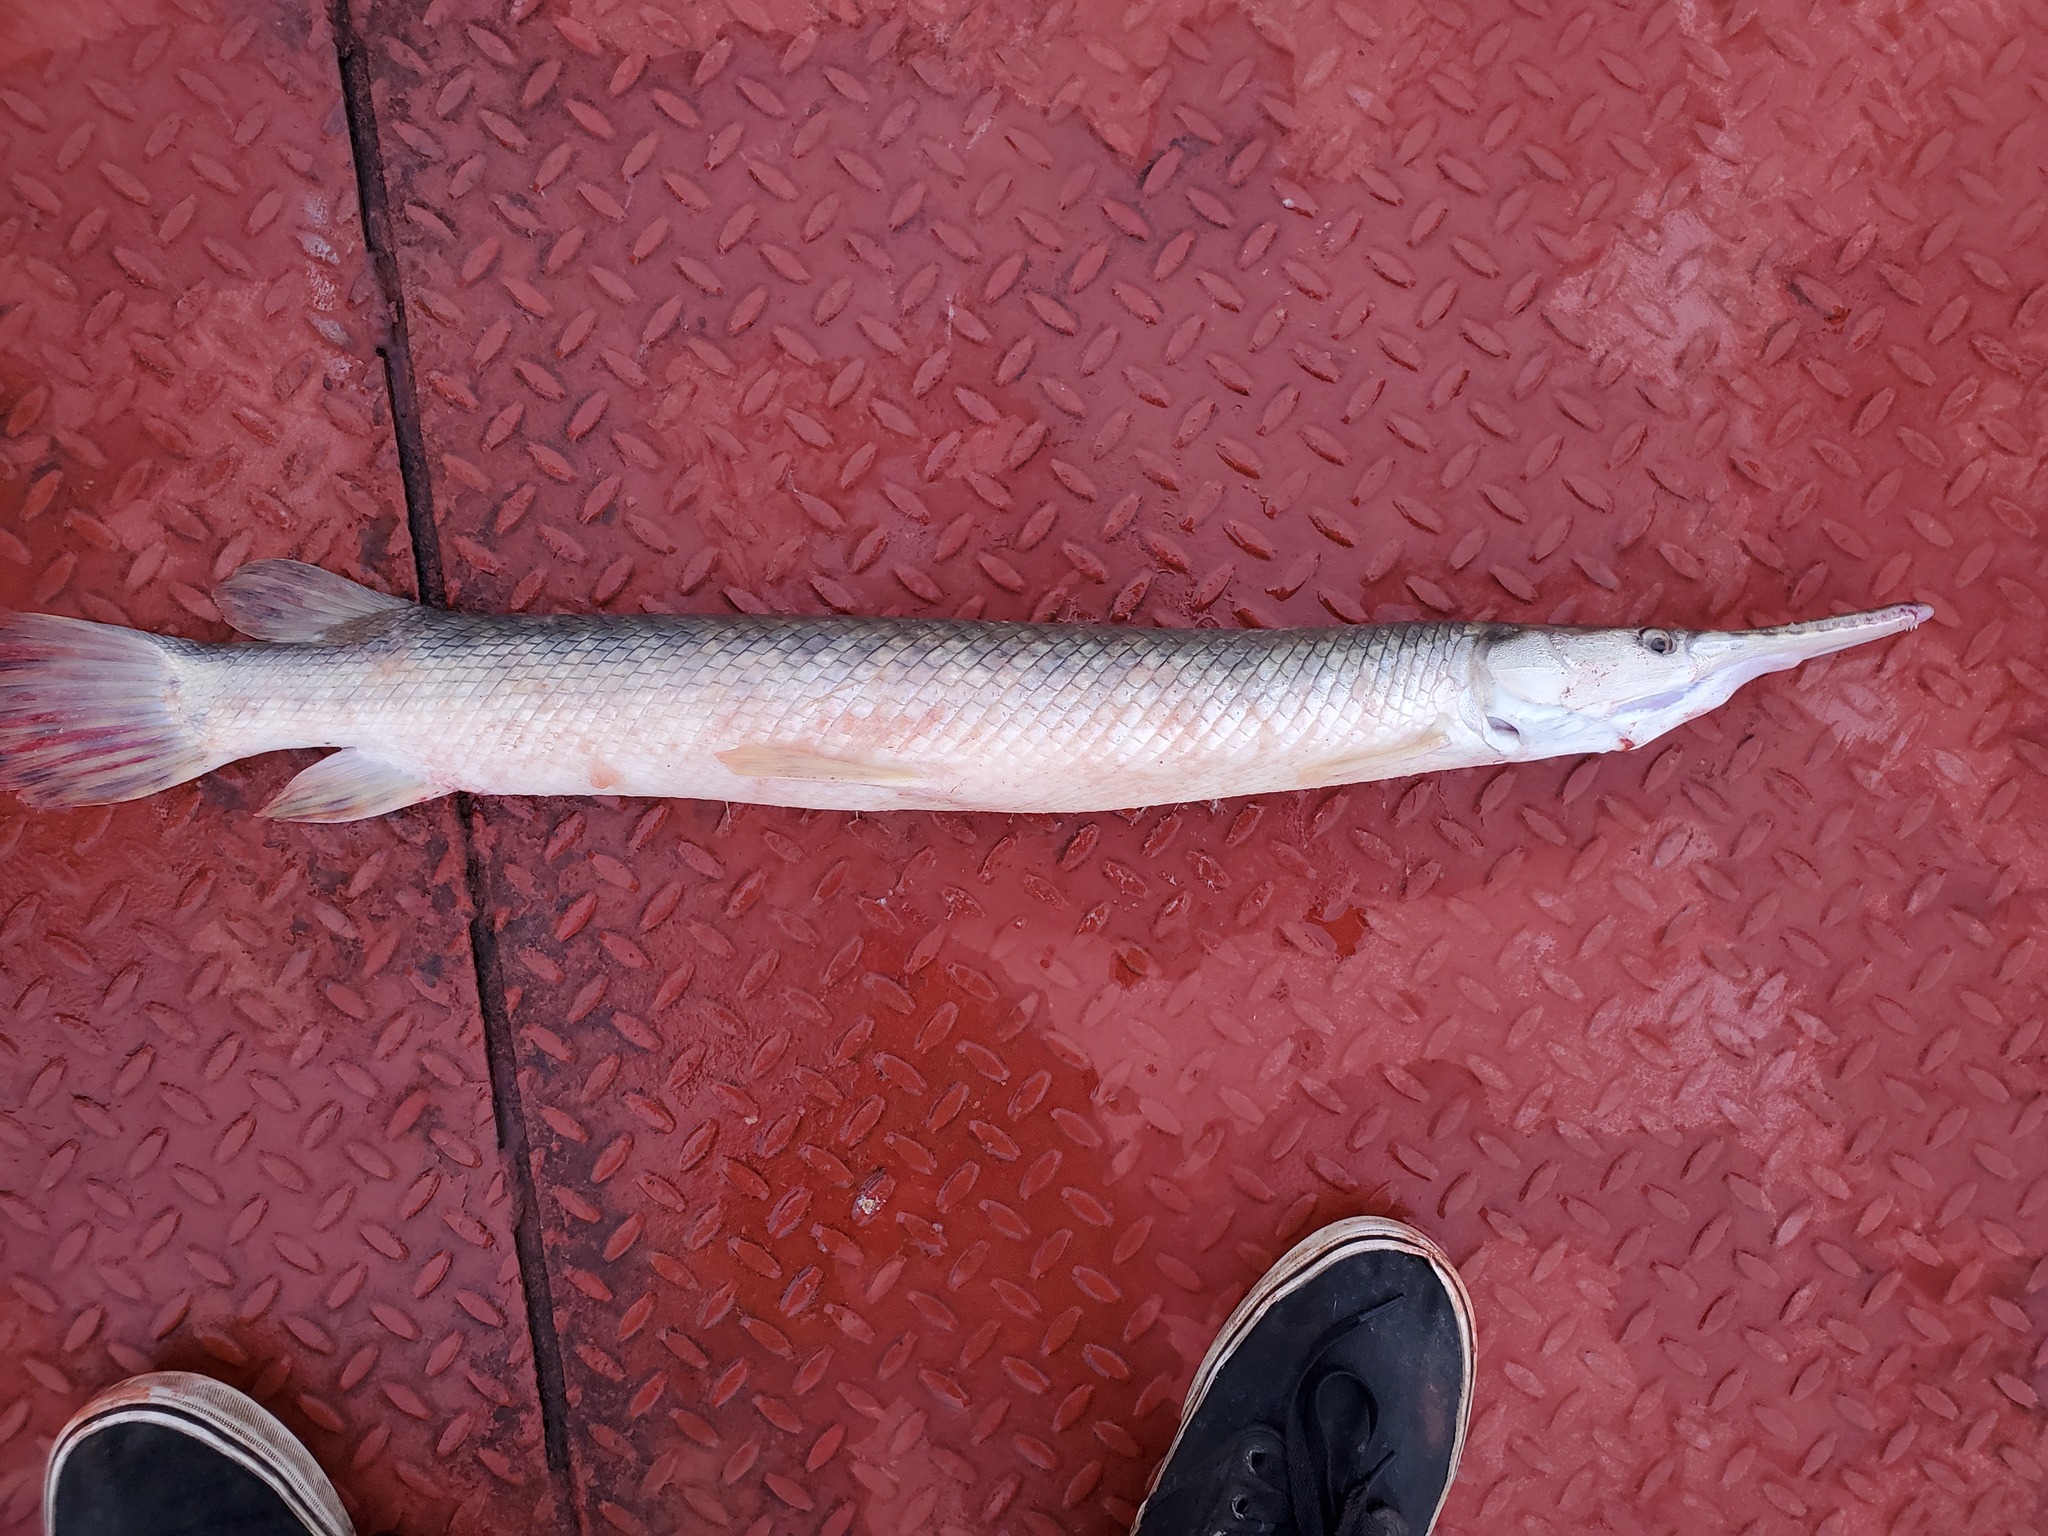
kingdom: Animalia
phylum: Chordata
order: Lepisosteiformes
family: Lepisosteidae
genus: Lepisosteus
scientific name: Lepisosteus oculatus
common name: Spotted gar
